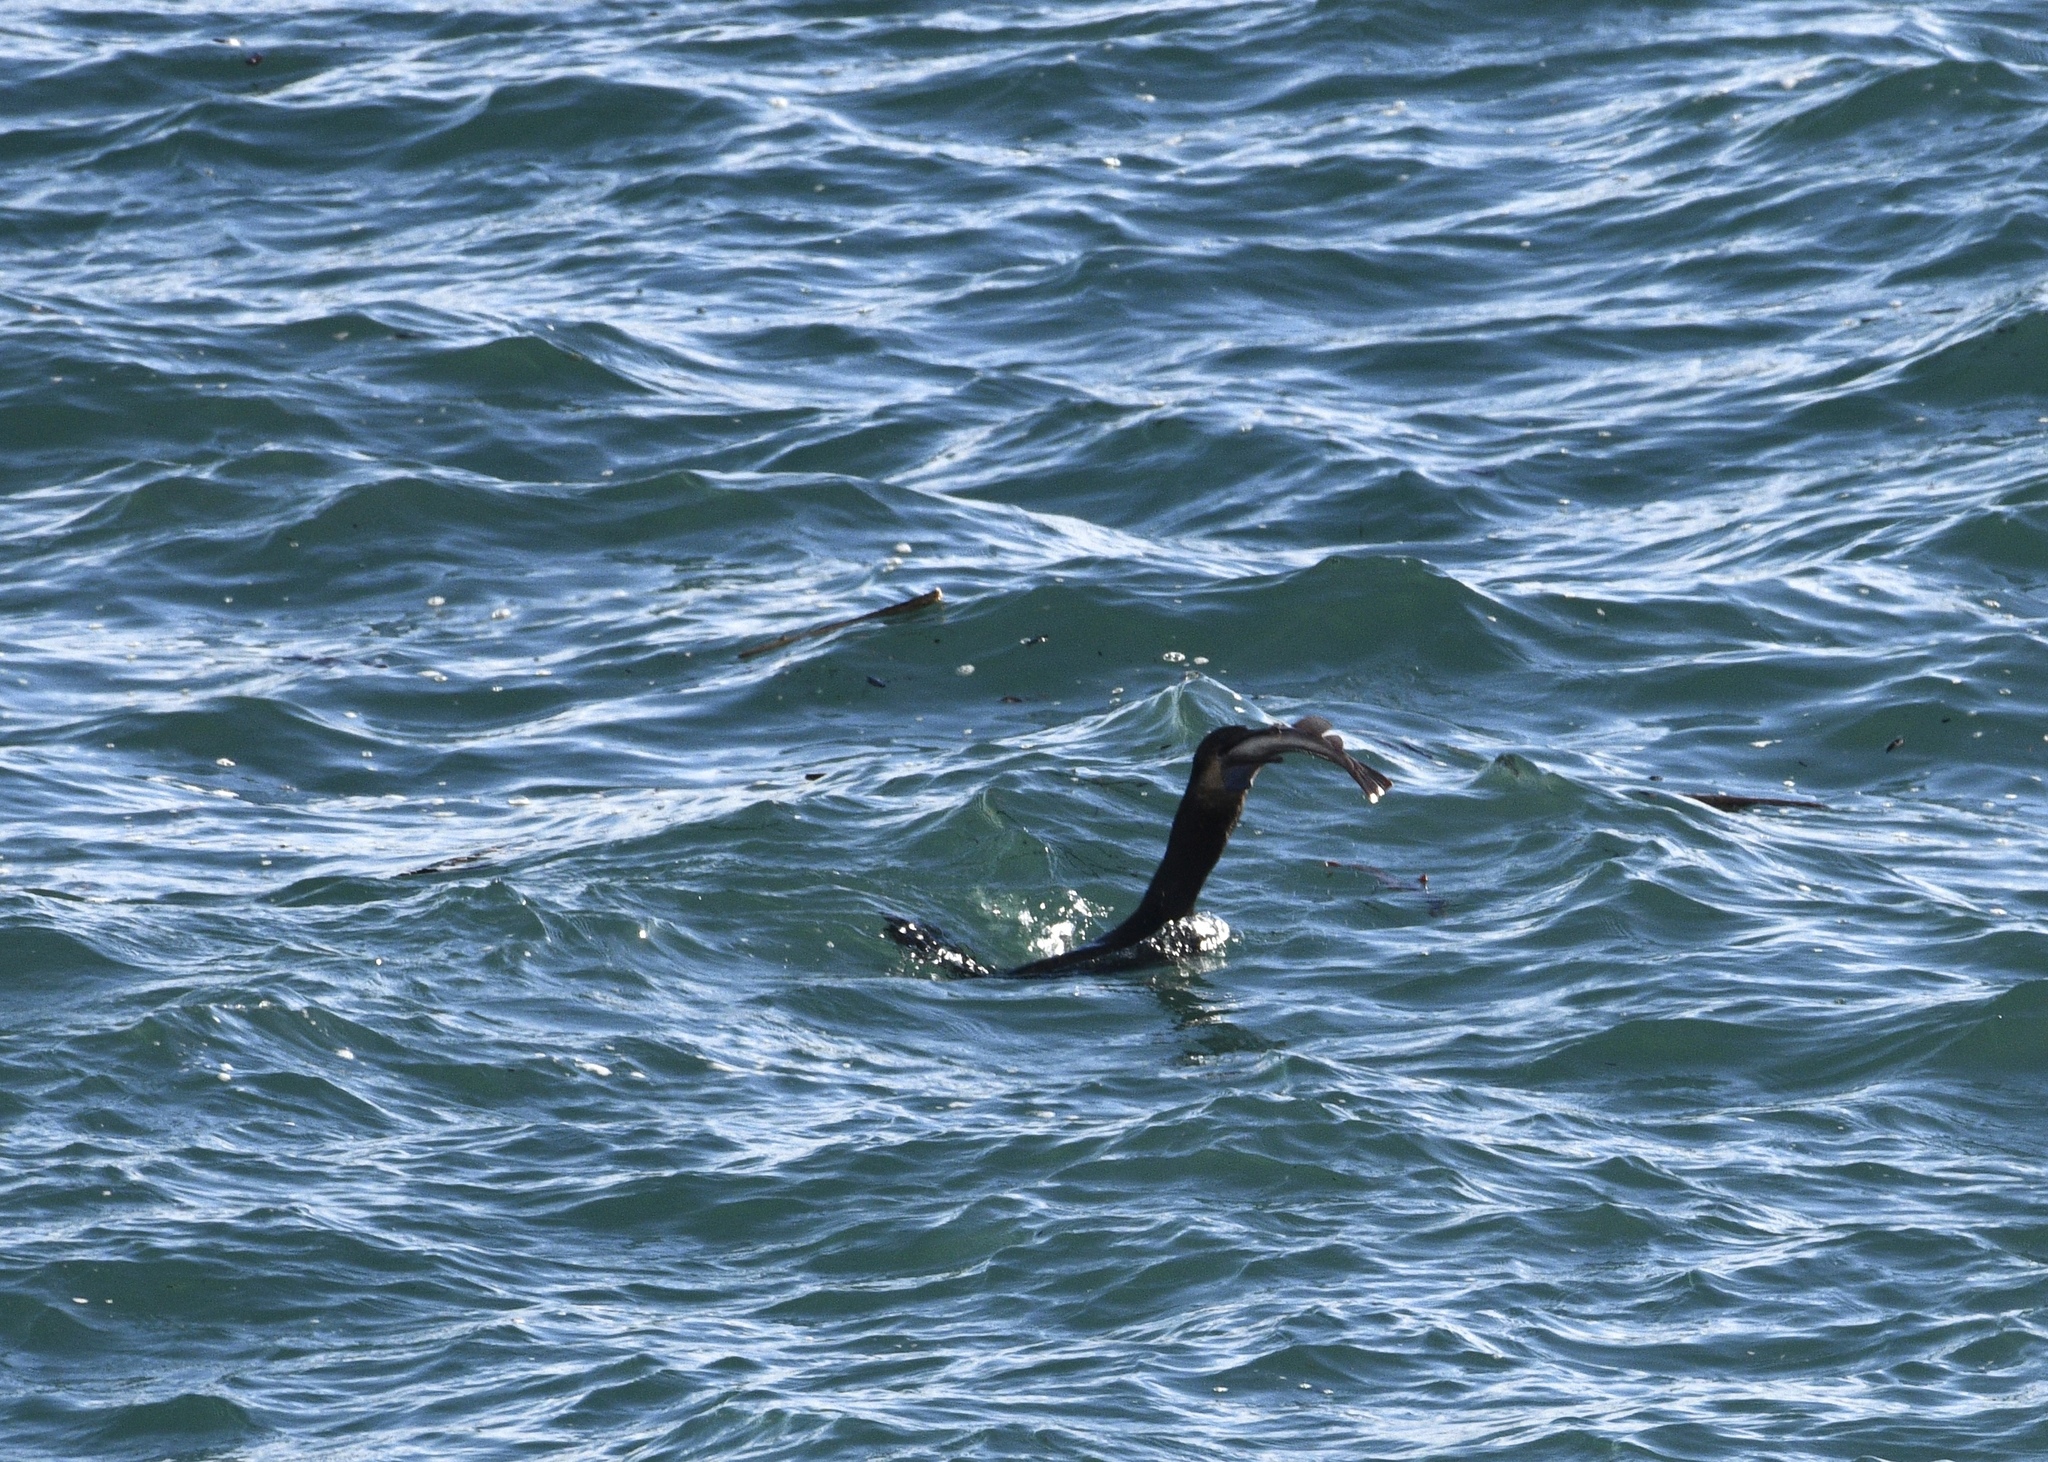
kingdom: Animalia
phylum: Chordata
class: Aves
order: Suliformes
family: Phalacrocoracidae
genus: Urile
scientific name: Urile penicillatus
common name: Brandt's cormorant
